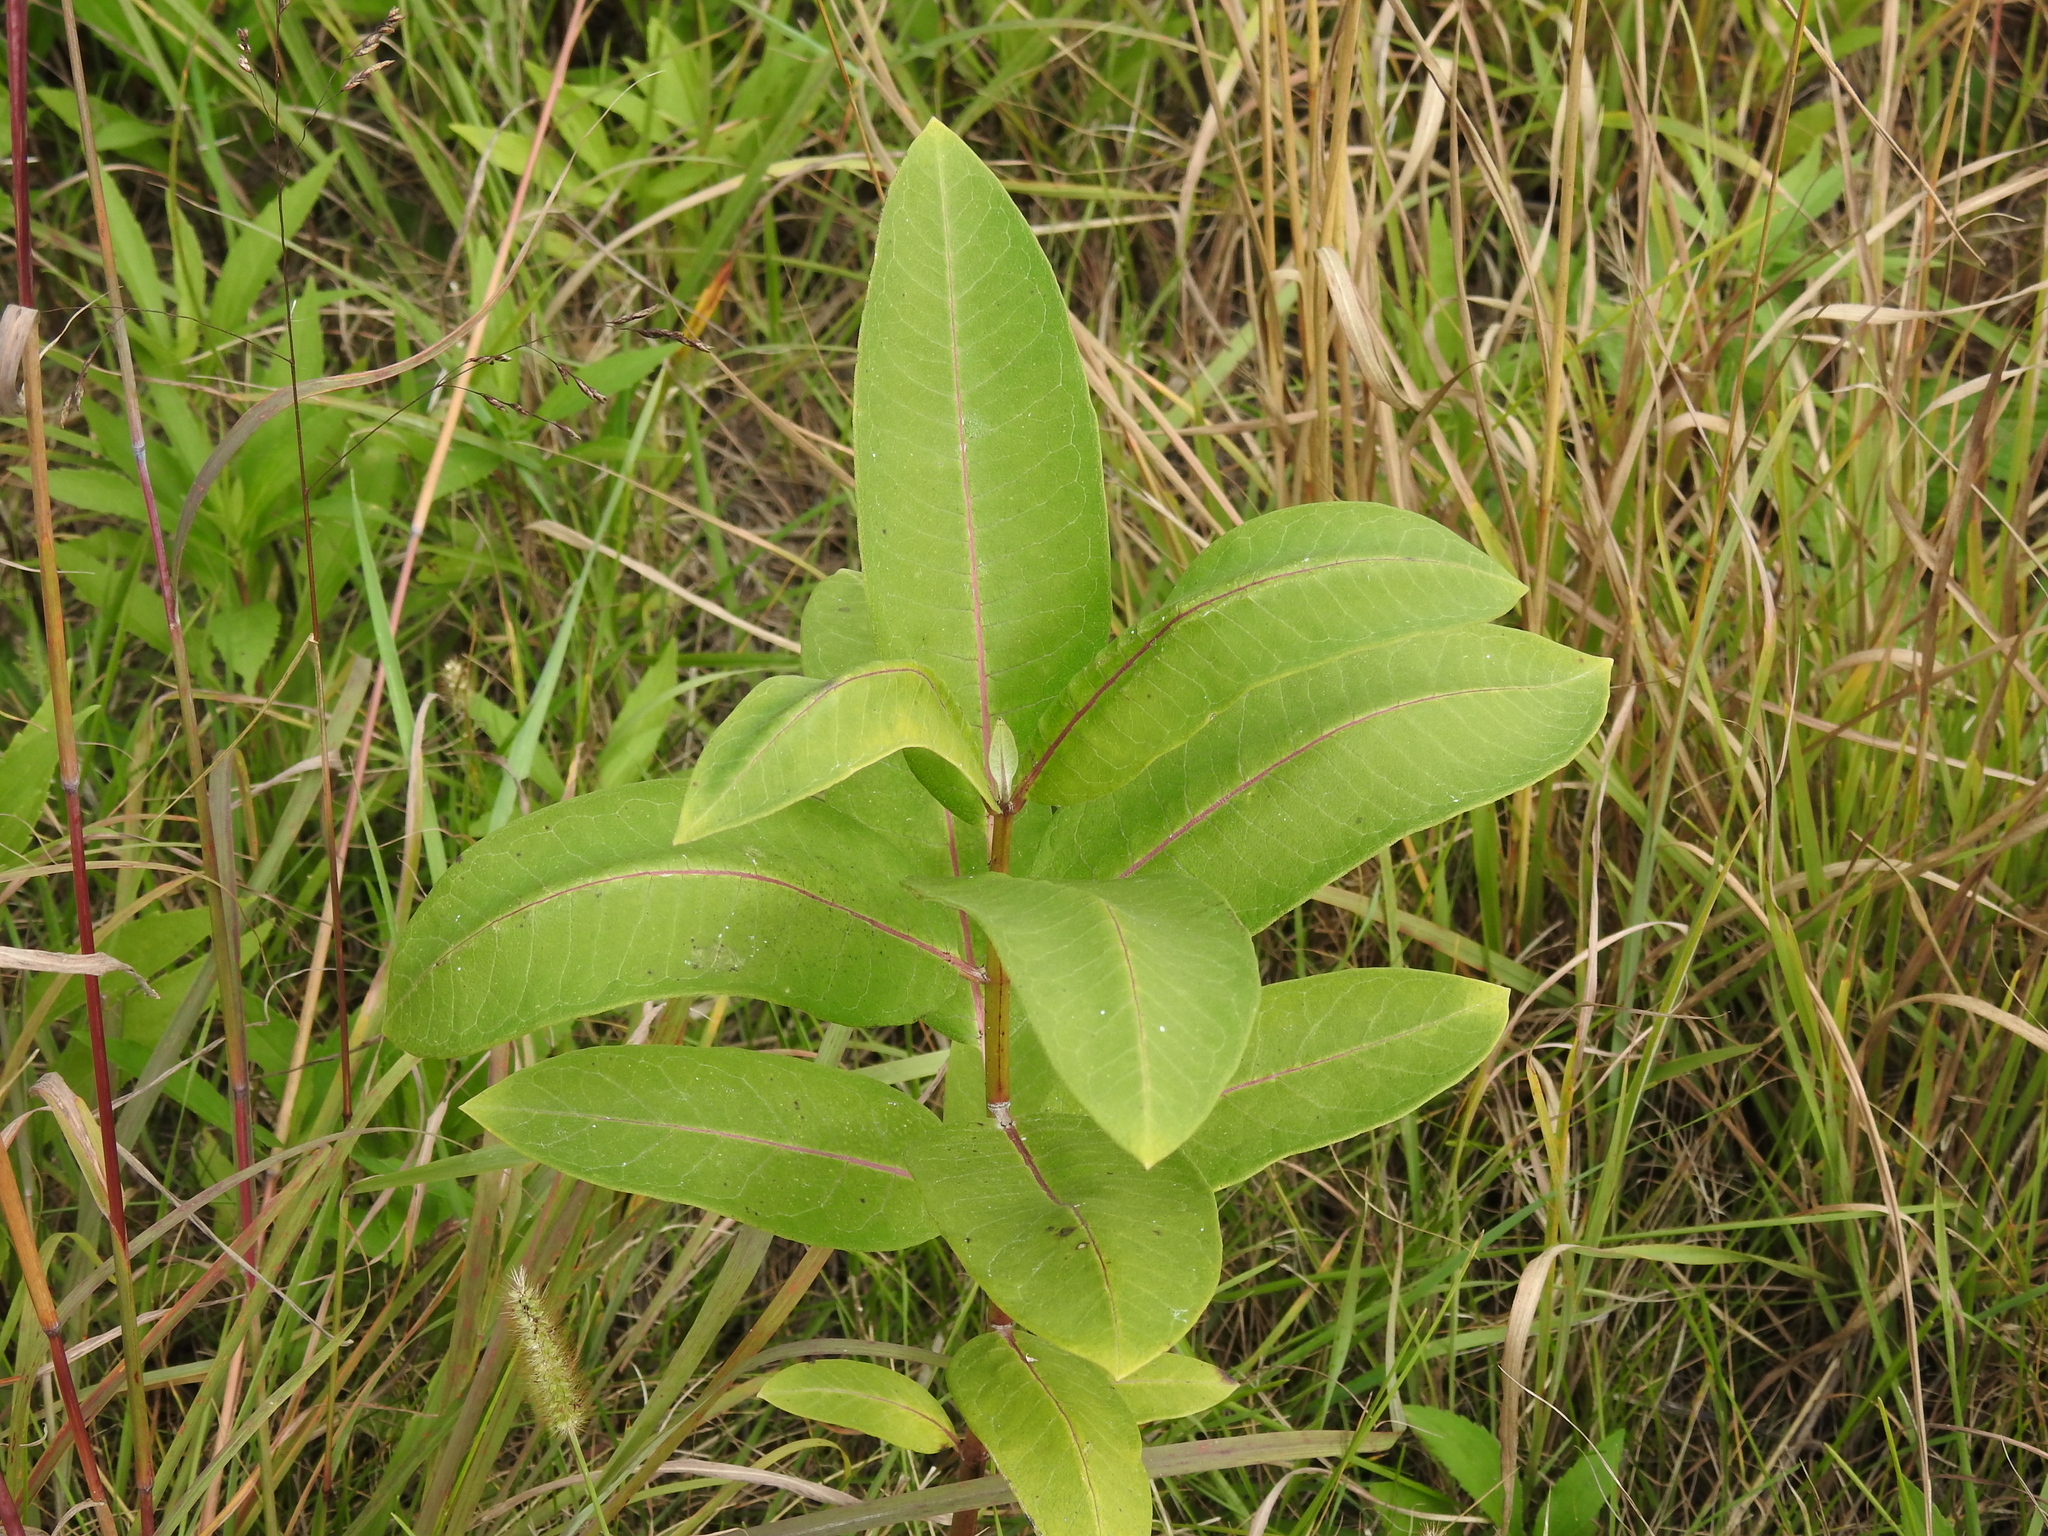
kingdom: Plantae
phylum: Tracheophyta
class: Magnoliopsida
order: Gentianales
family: Apocynaceae
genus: Asclepias
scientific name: Asclepias syriaca
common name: Common milkweed
